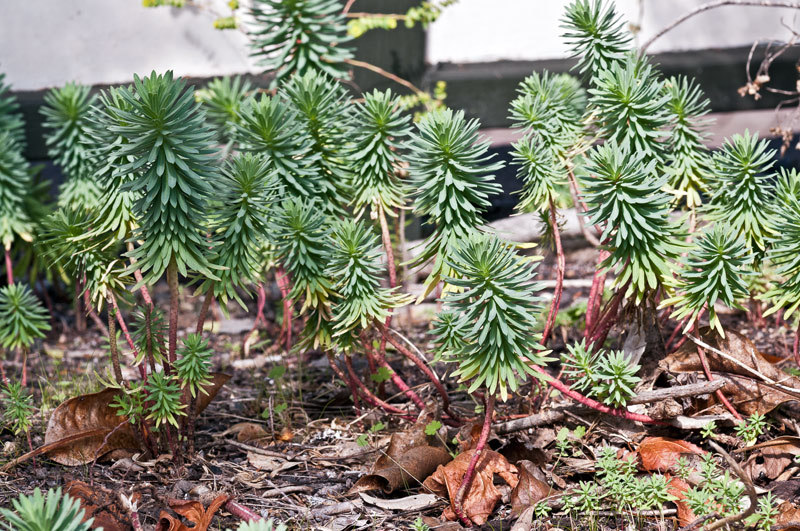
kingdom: Plantae
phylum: Tracheophyta
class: Magnoliopsida
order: Malpighiales
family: Euphorbiaceae
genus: Euphorbia
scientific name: Euphorbia segetalis
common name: Corn spurge
